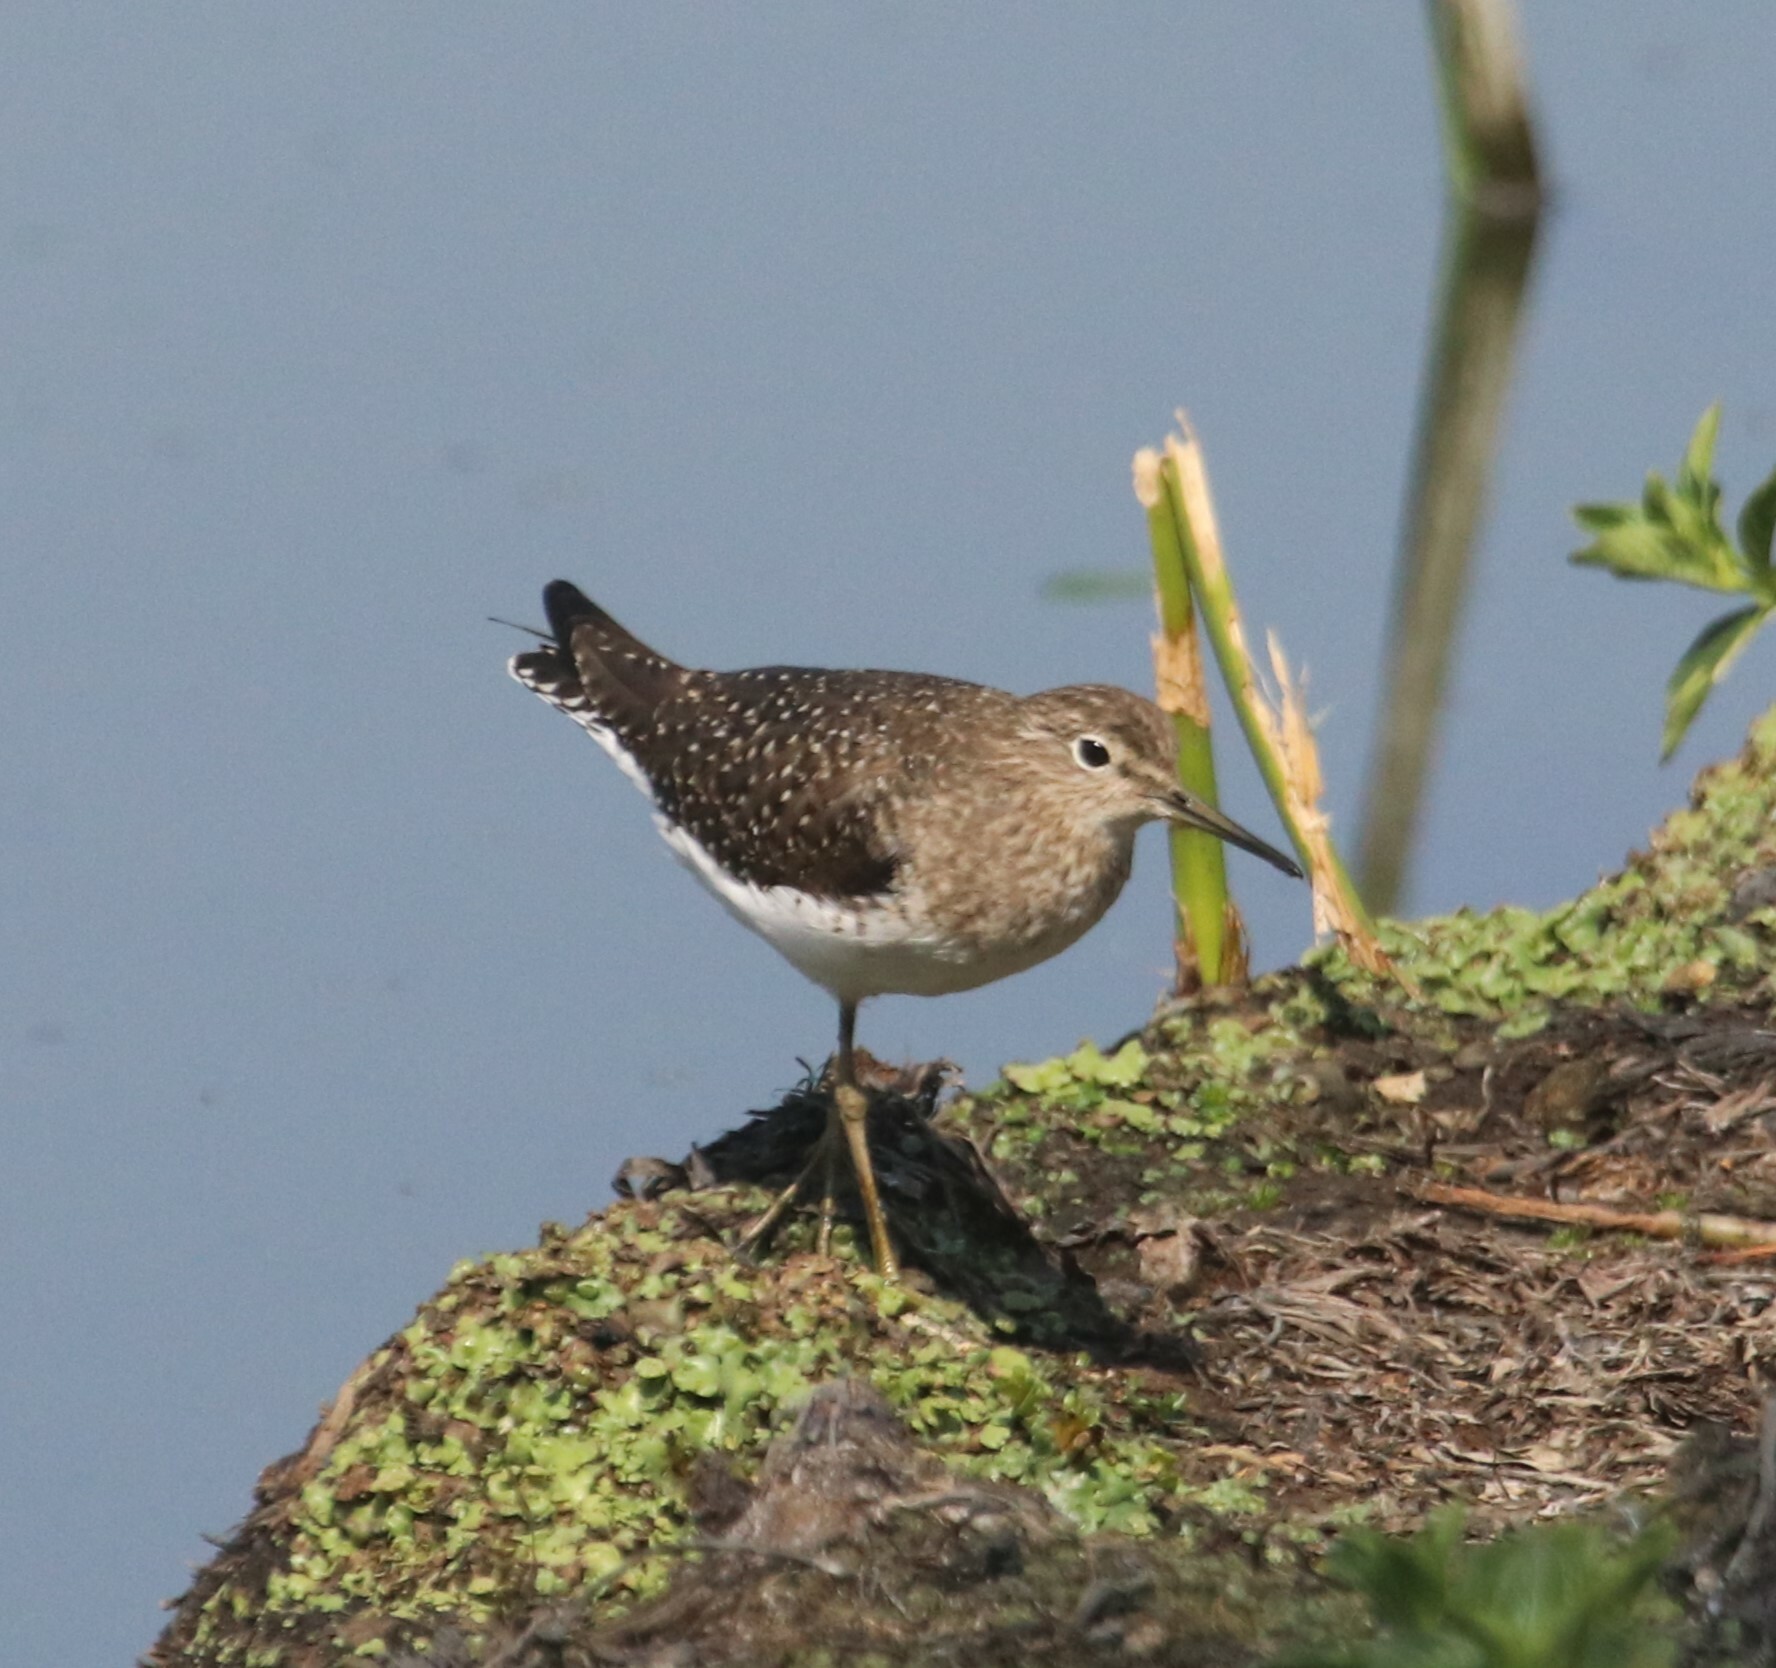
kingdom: Animalia
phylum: Chordata
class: Aves
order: Charadriiformes
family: Scolopacidae
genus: Tringa
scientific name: Tringa solitaria
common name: Solitary sandpiper
